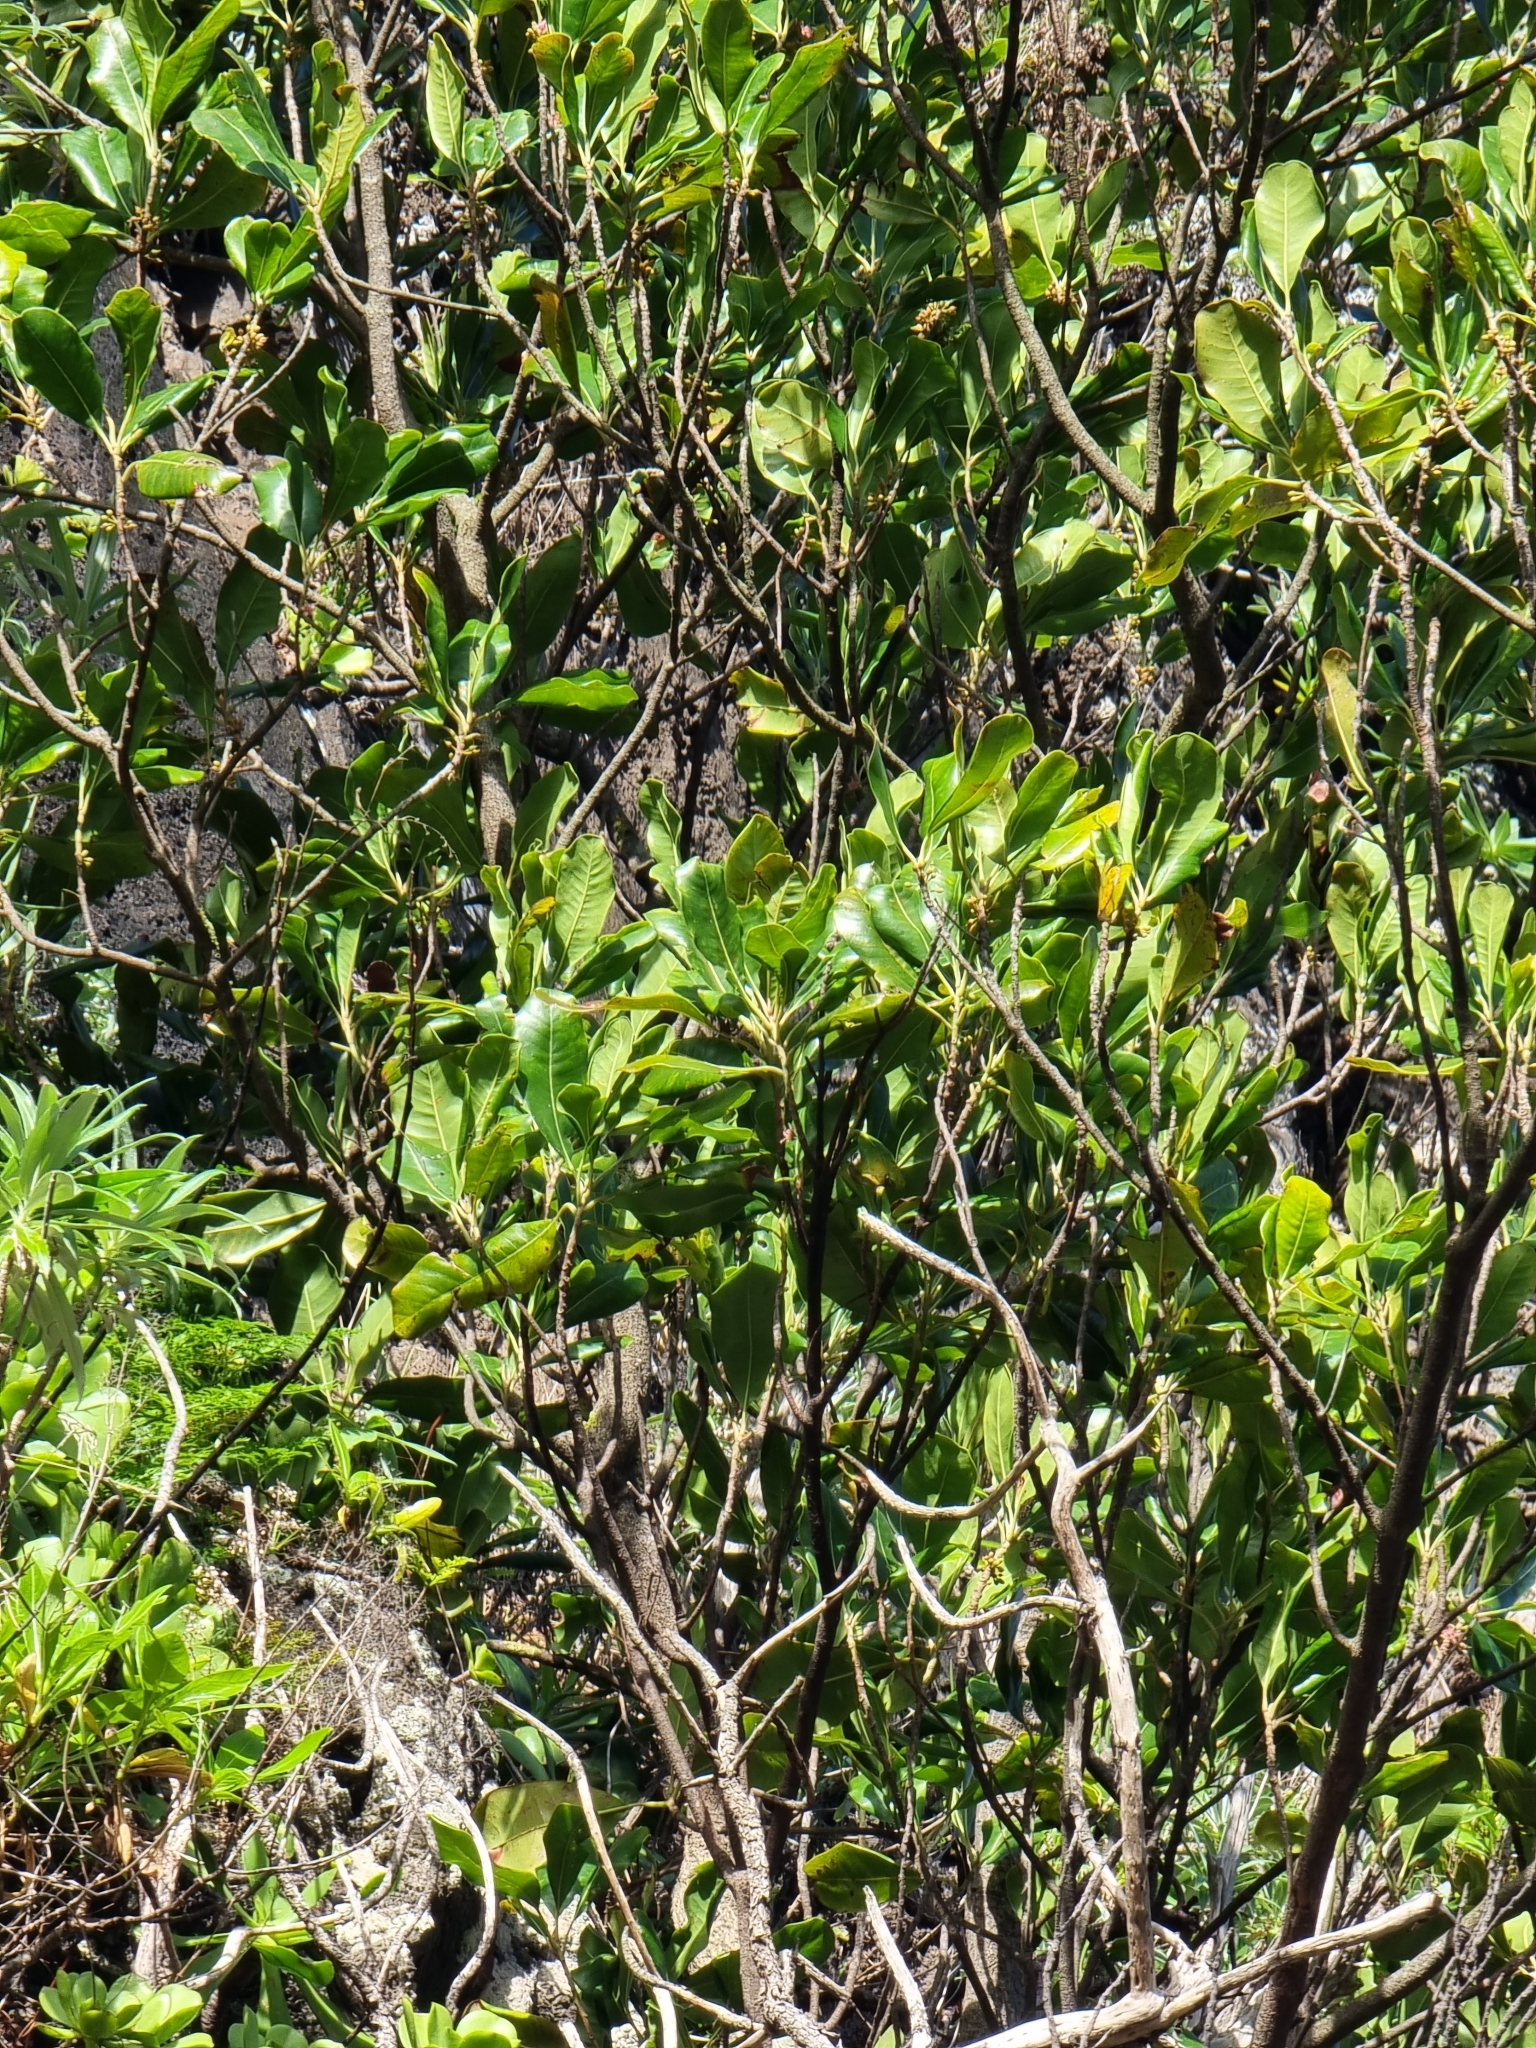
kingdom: Plantae
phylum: Tracheophyta
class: Magnoliopsida
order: Ericales
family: Sapotaceae
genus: Sideroxylon
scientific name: Sideroxylon mirmulans
